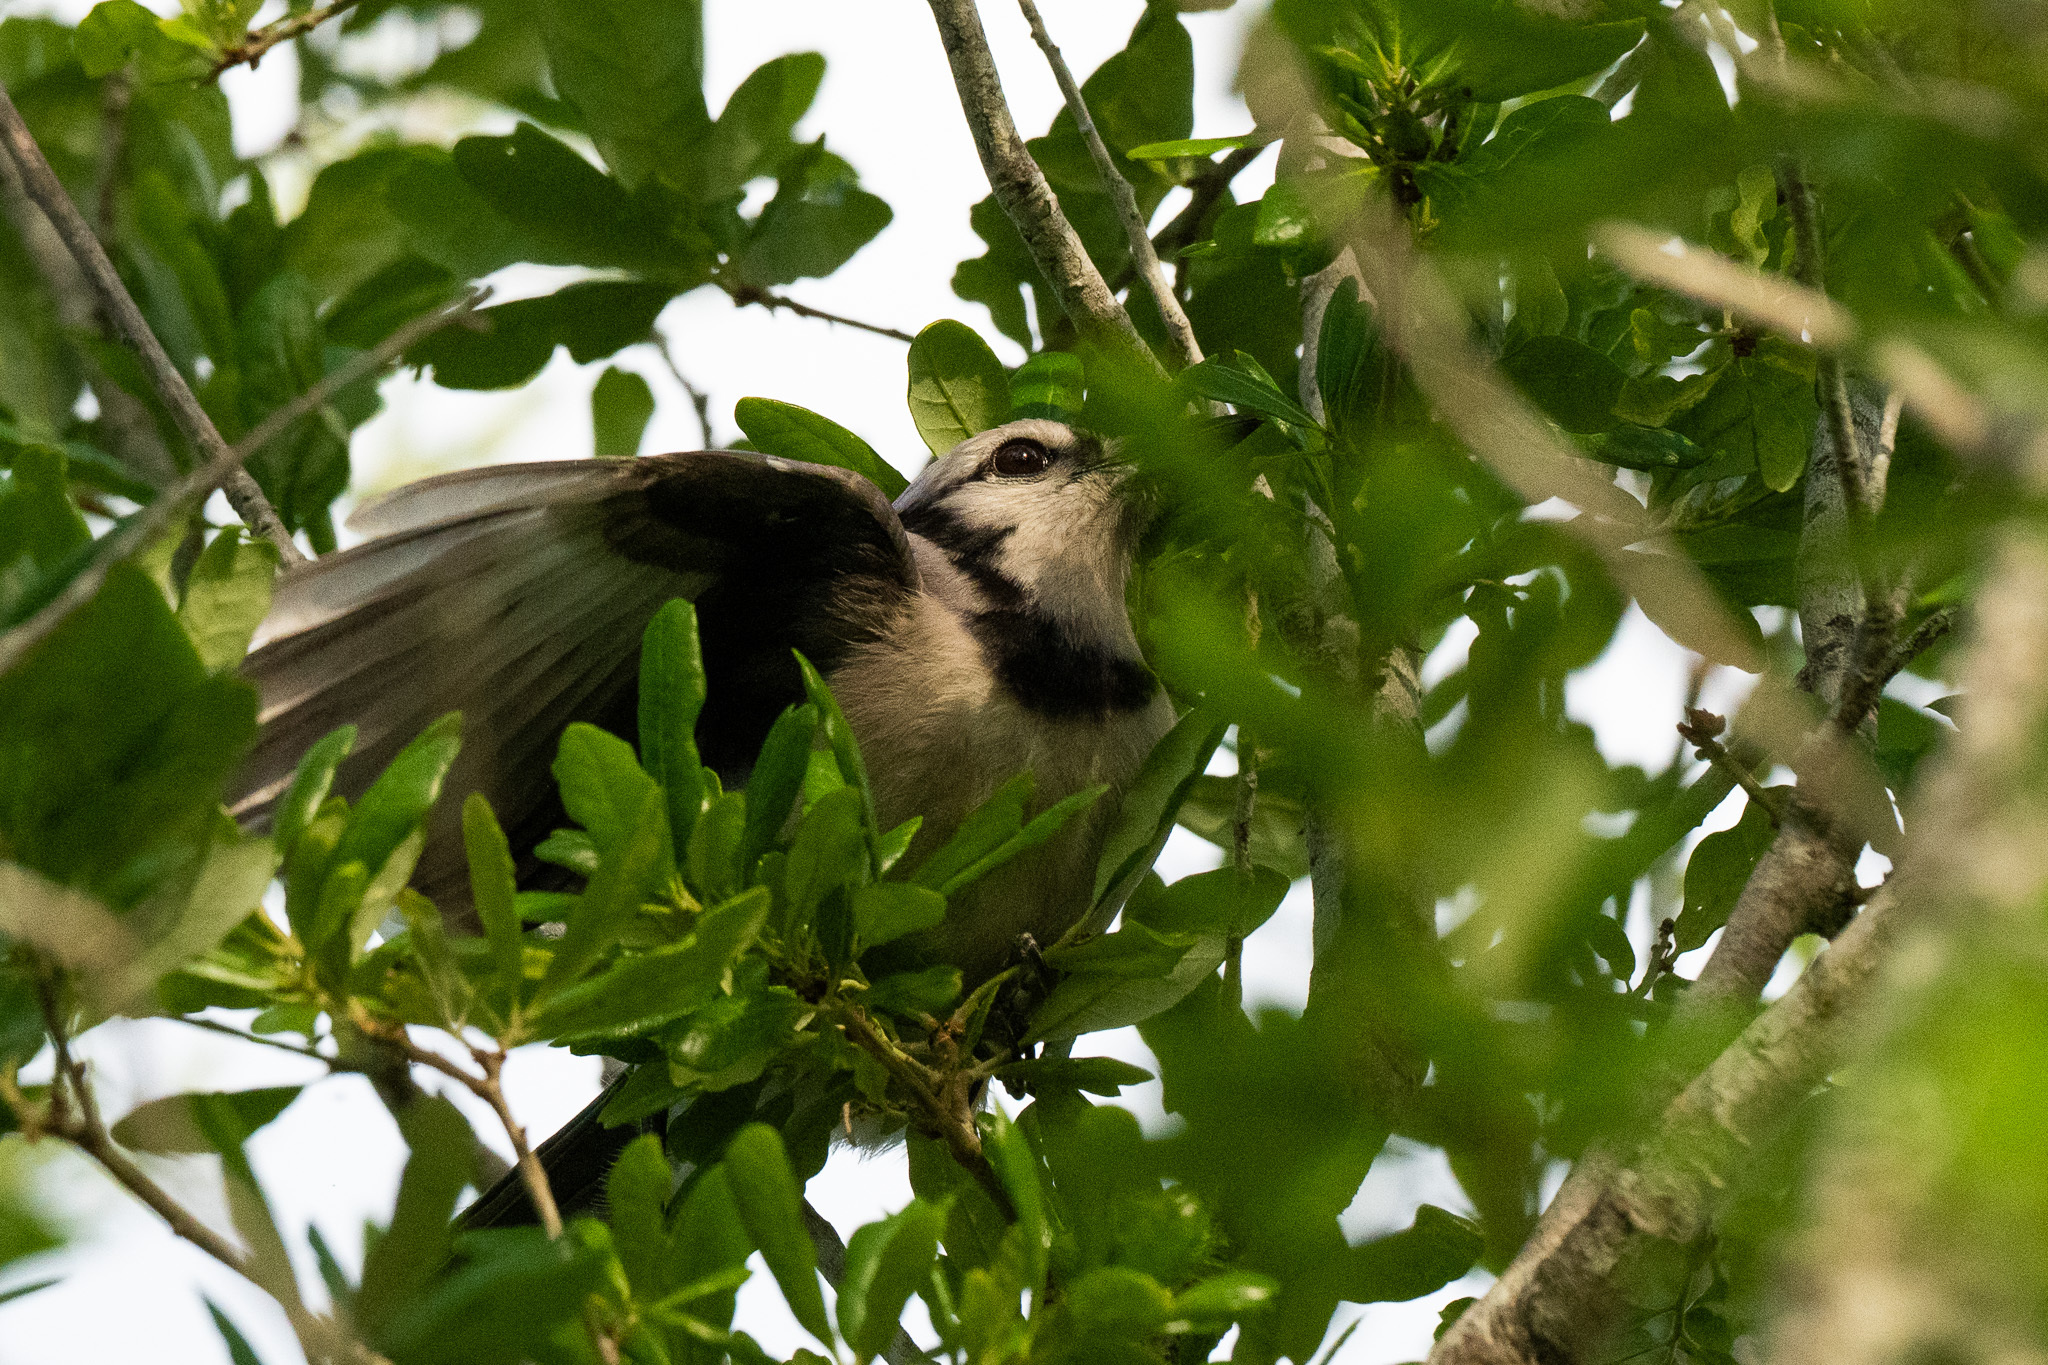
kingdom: Animalia
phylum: Chordata
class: Aves
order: Passeriformes
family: Corvidae
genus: Cyanocitta
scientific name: Cyanocitta cristata
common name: Blue jay
